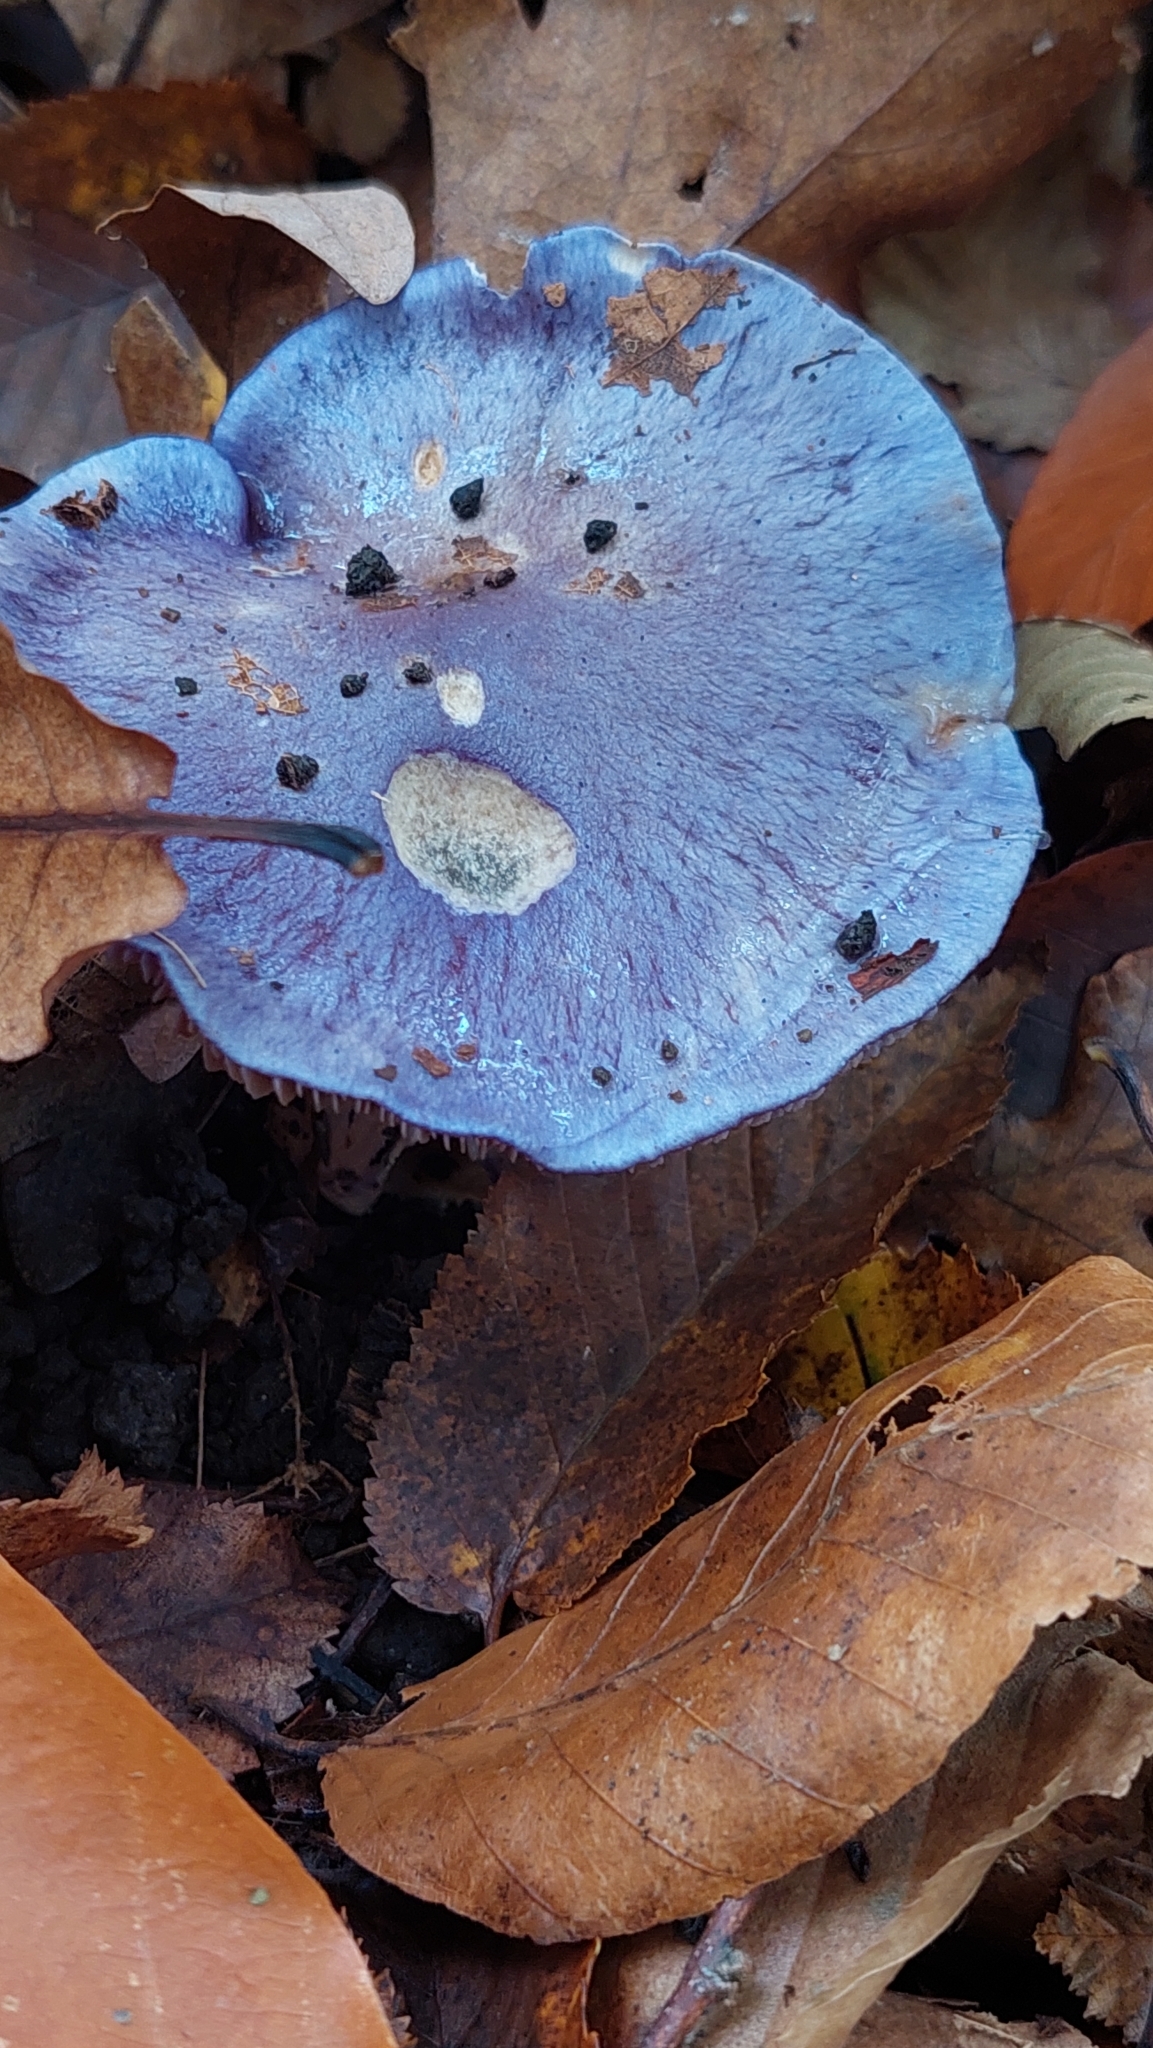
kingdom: Fungi
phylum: Basidiomycota
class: Agaricomycetes
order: Agaricales
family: Hydnangiaceae
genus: Laccaria
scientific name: Laccaria amethystina
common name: Amethyst deceiver
